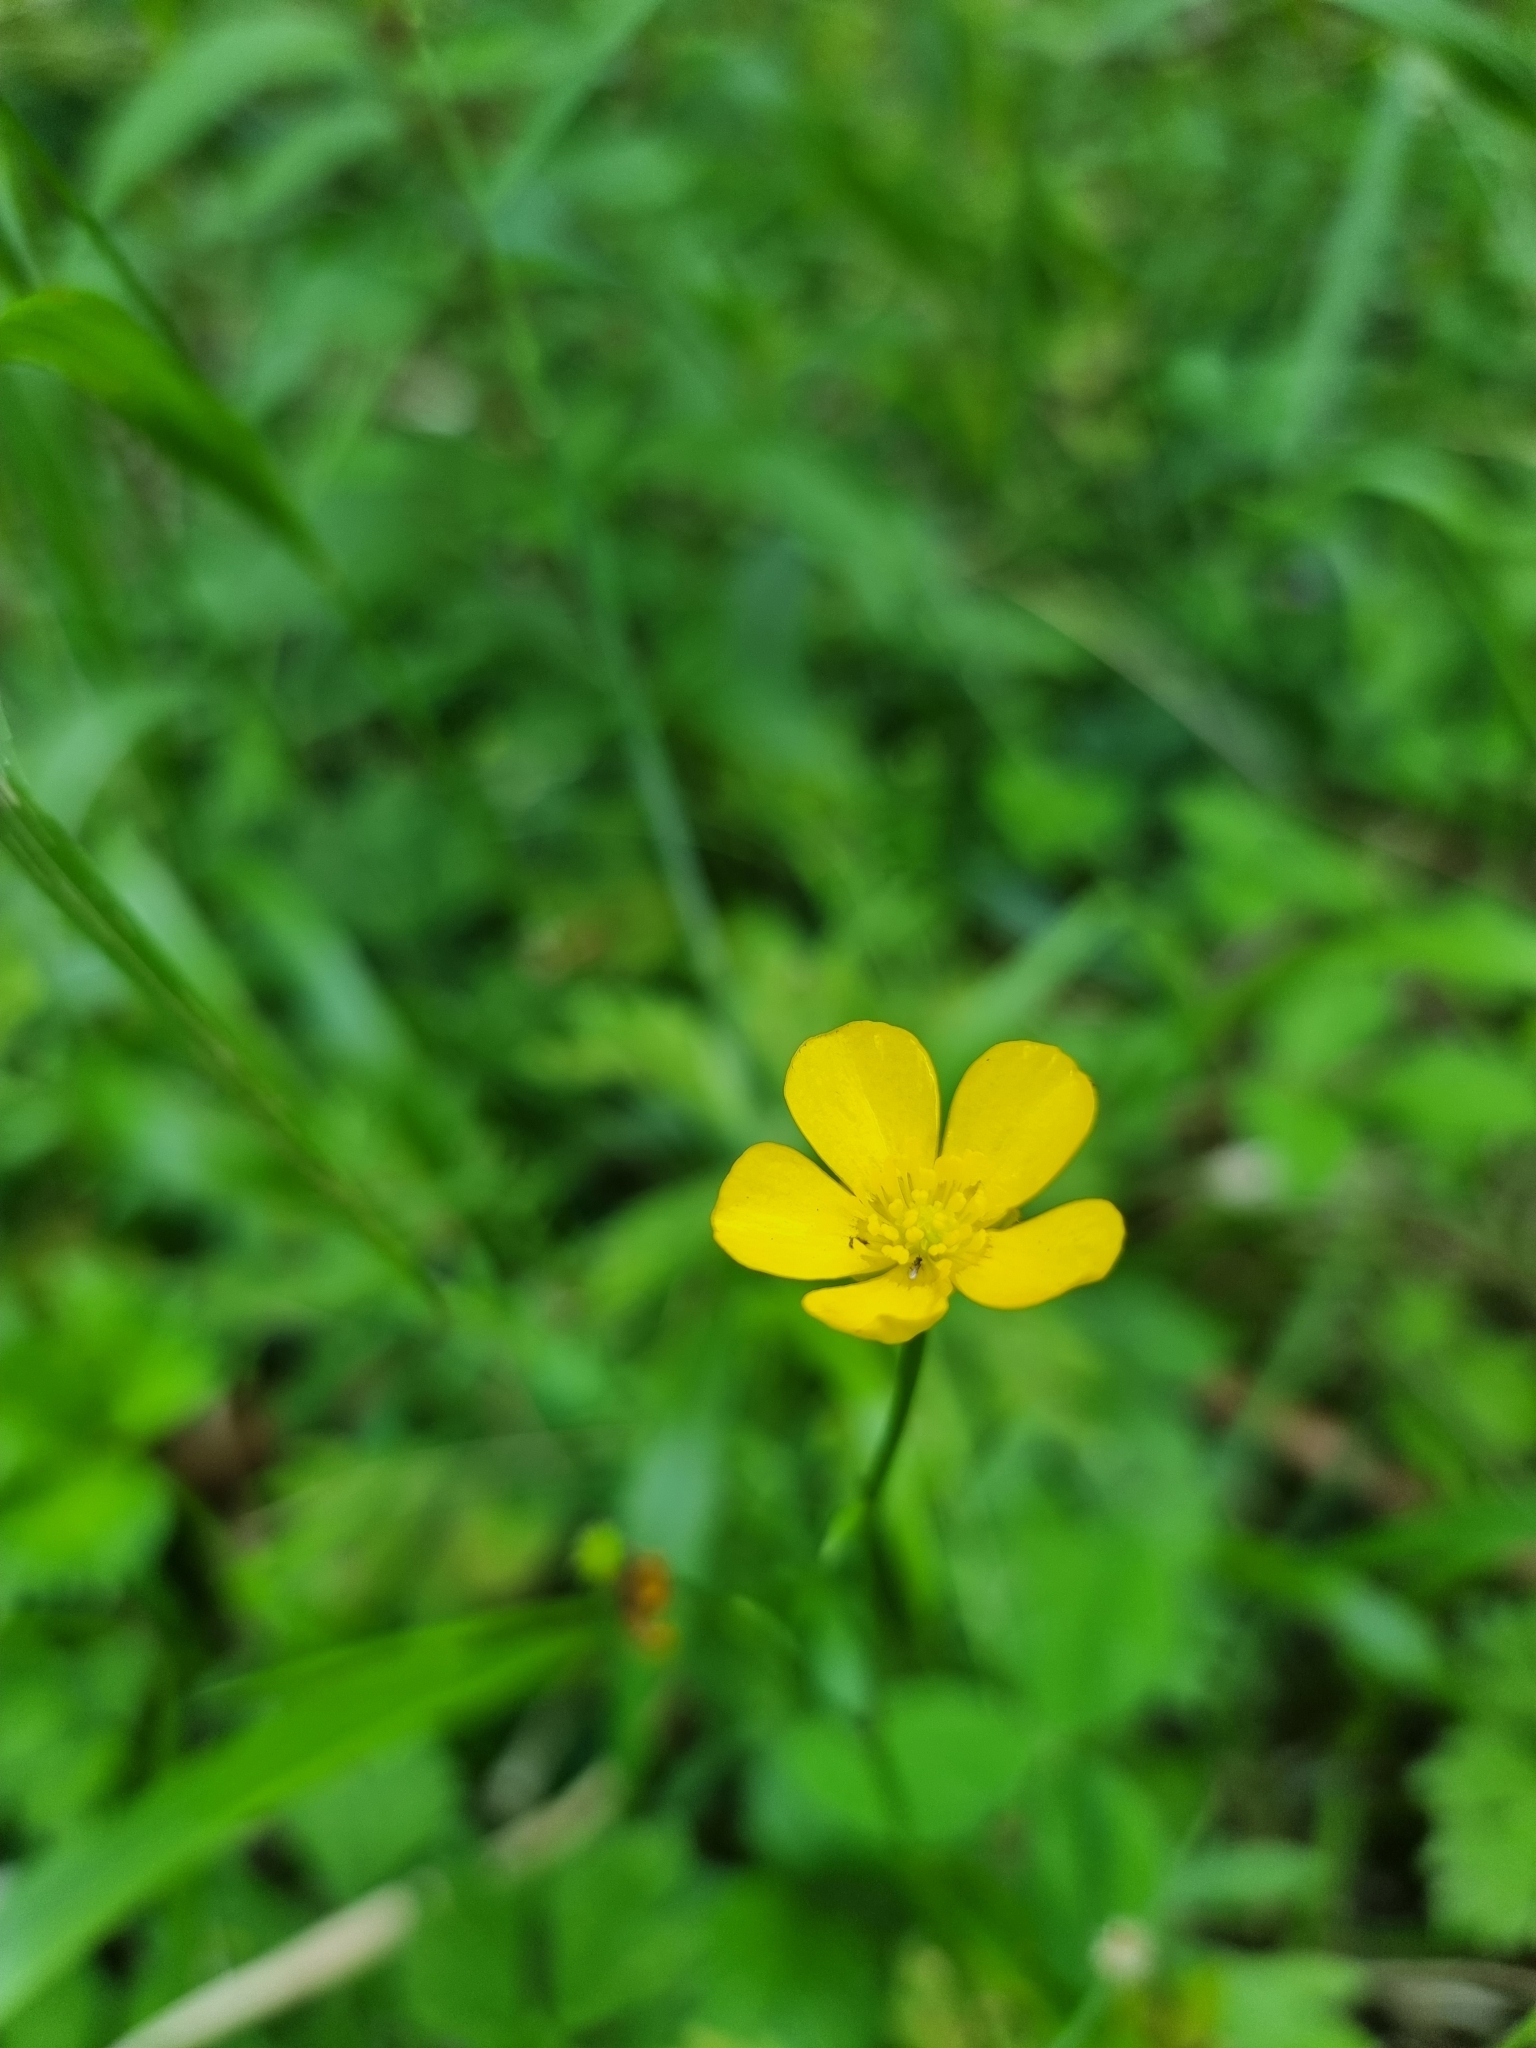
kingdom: Plantae
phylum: Tracheophyta
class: Magnoliopsida
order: Ranunculales
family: Ranunculaceae
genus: Ranunculus
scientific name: Ranunculus repens
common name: Creeping buttercup
